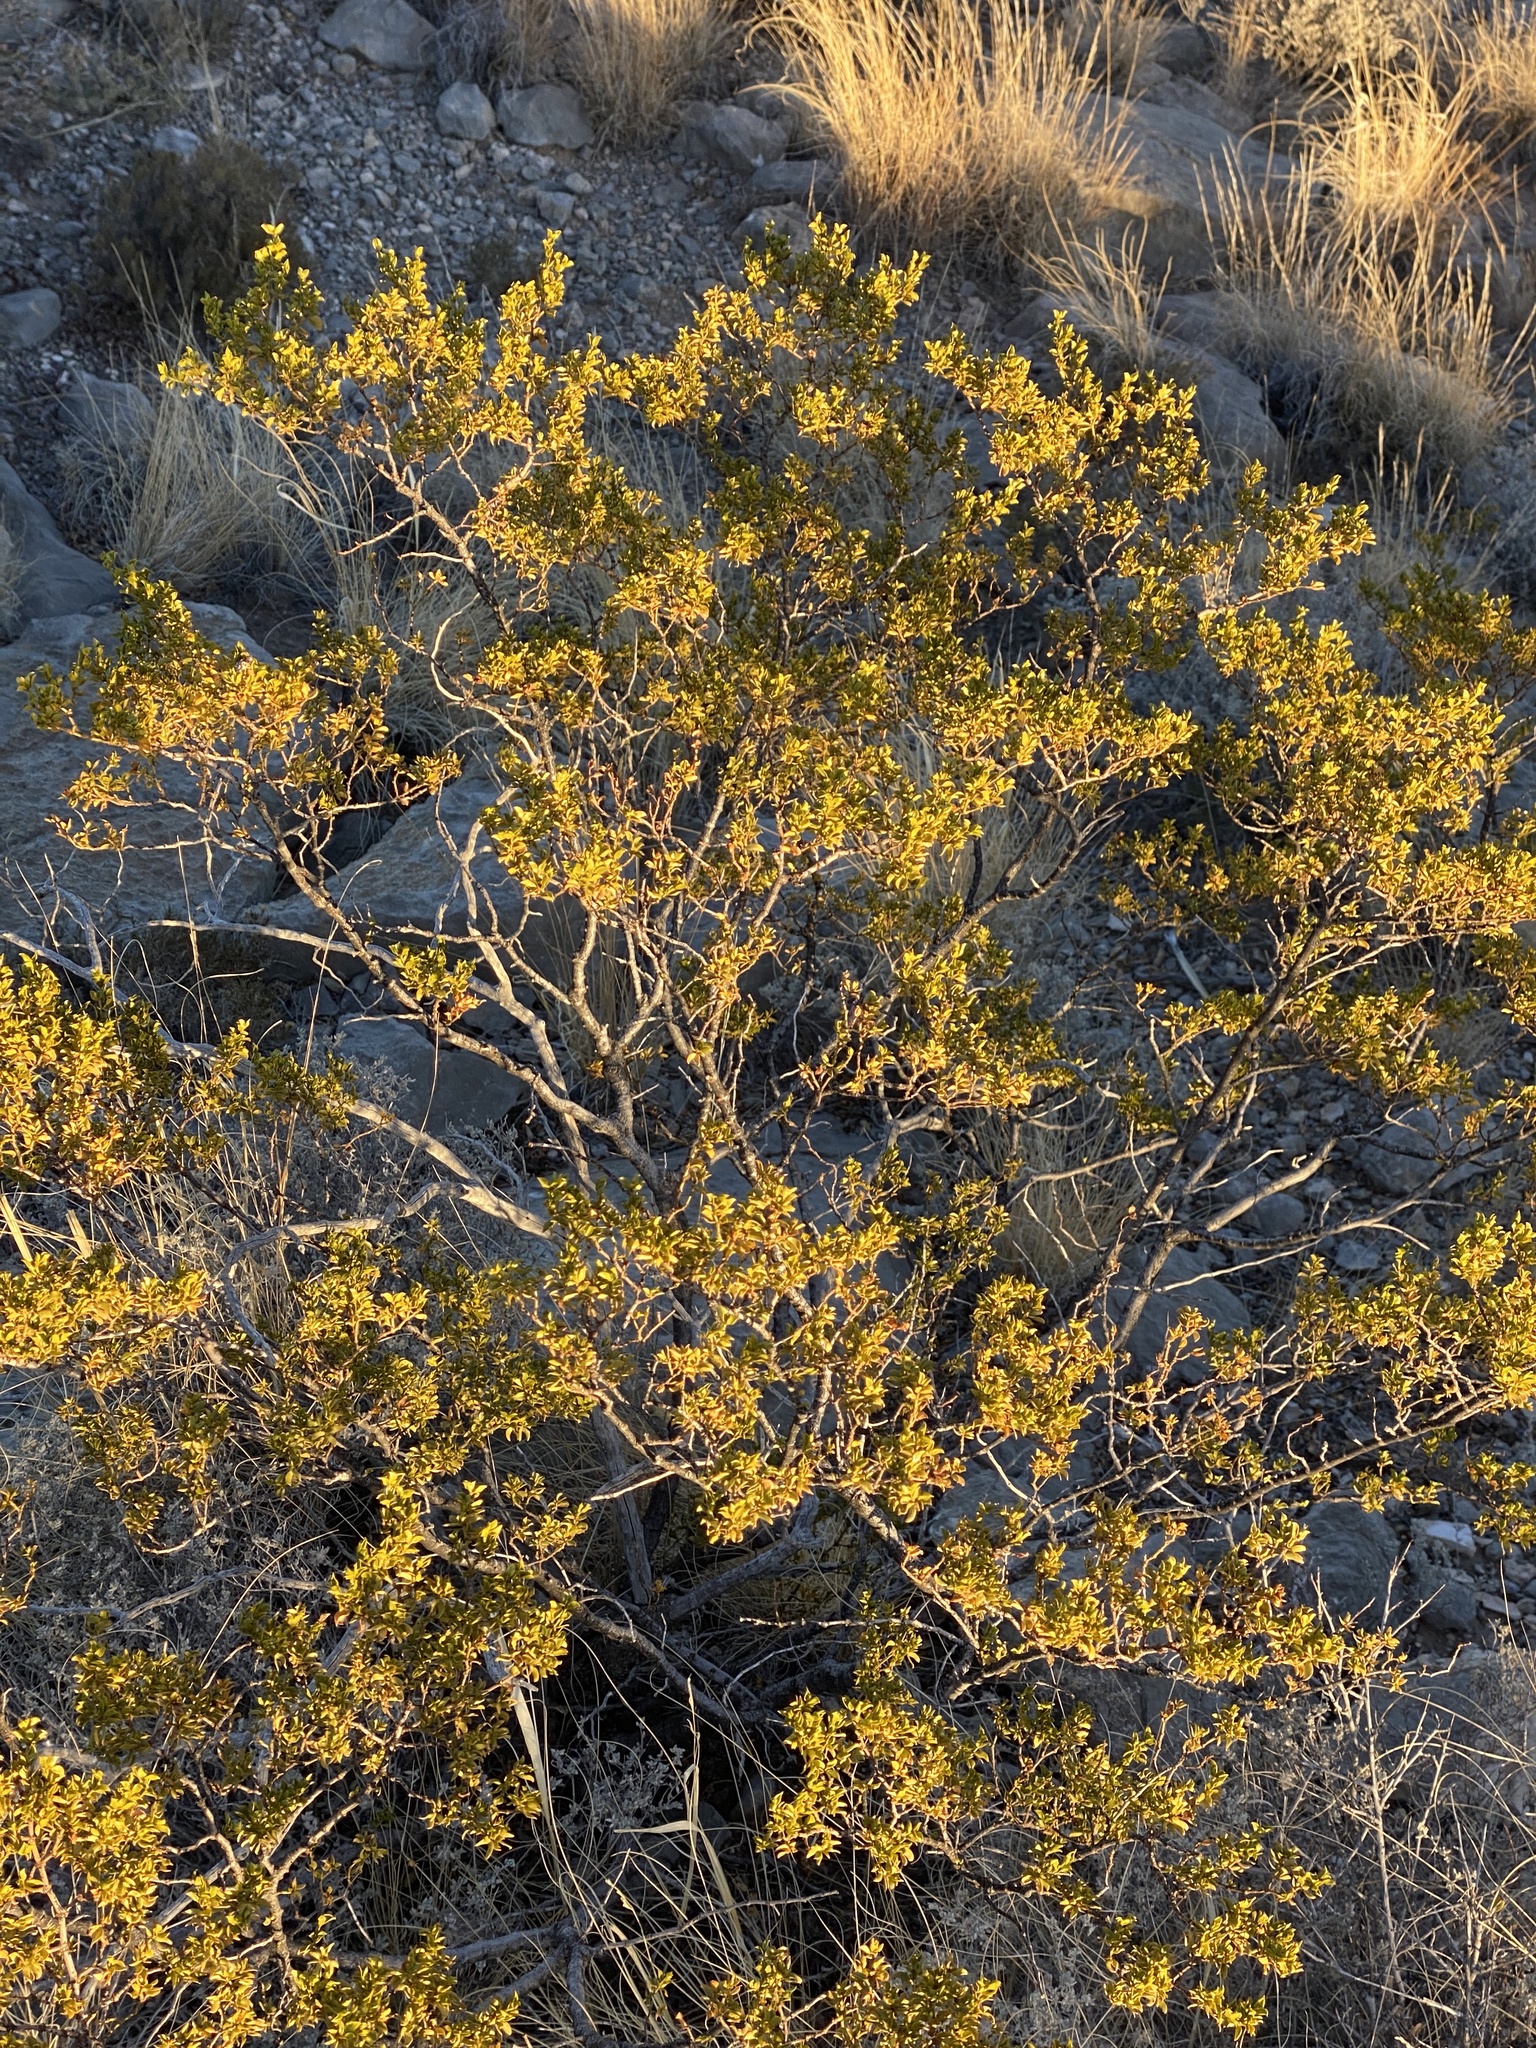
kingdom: Plantae
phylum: Tracheophyta
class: Magnoliopsida
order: Zygophyllales
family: Zygophyllaceae
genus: Larrea
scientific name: Larrea tridentata
